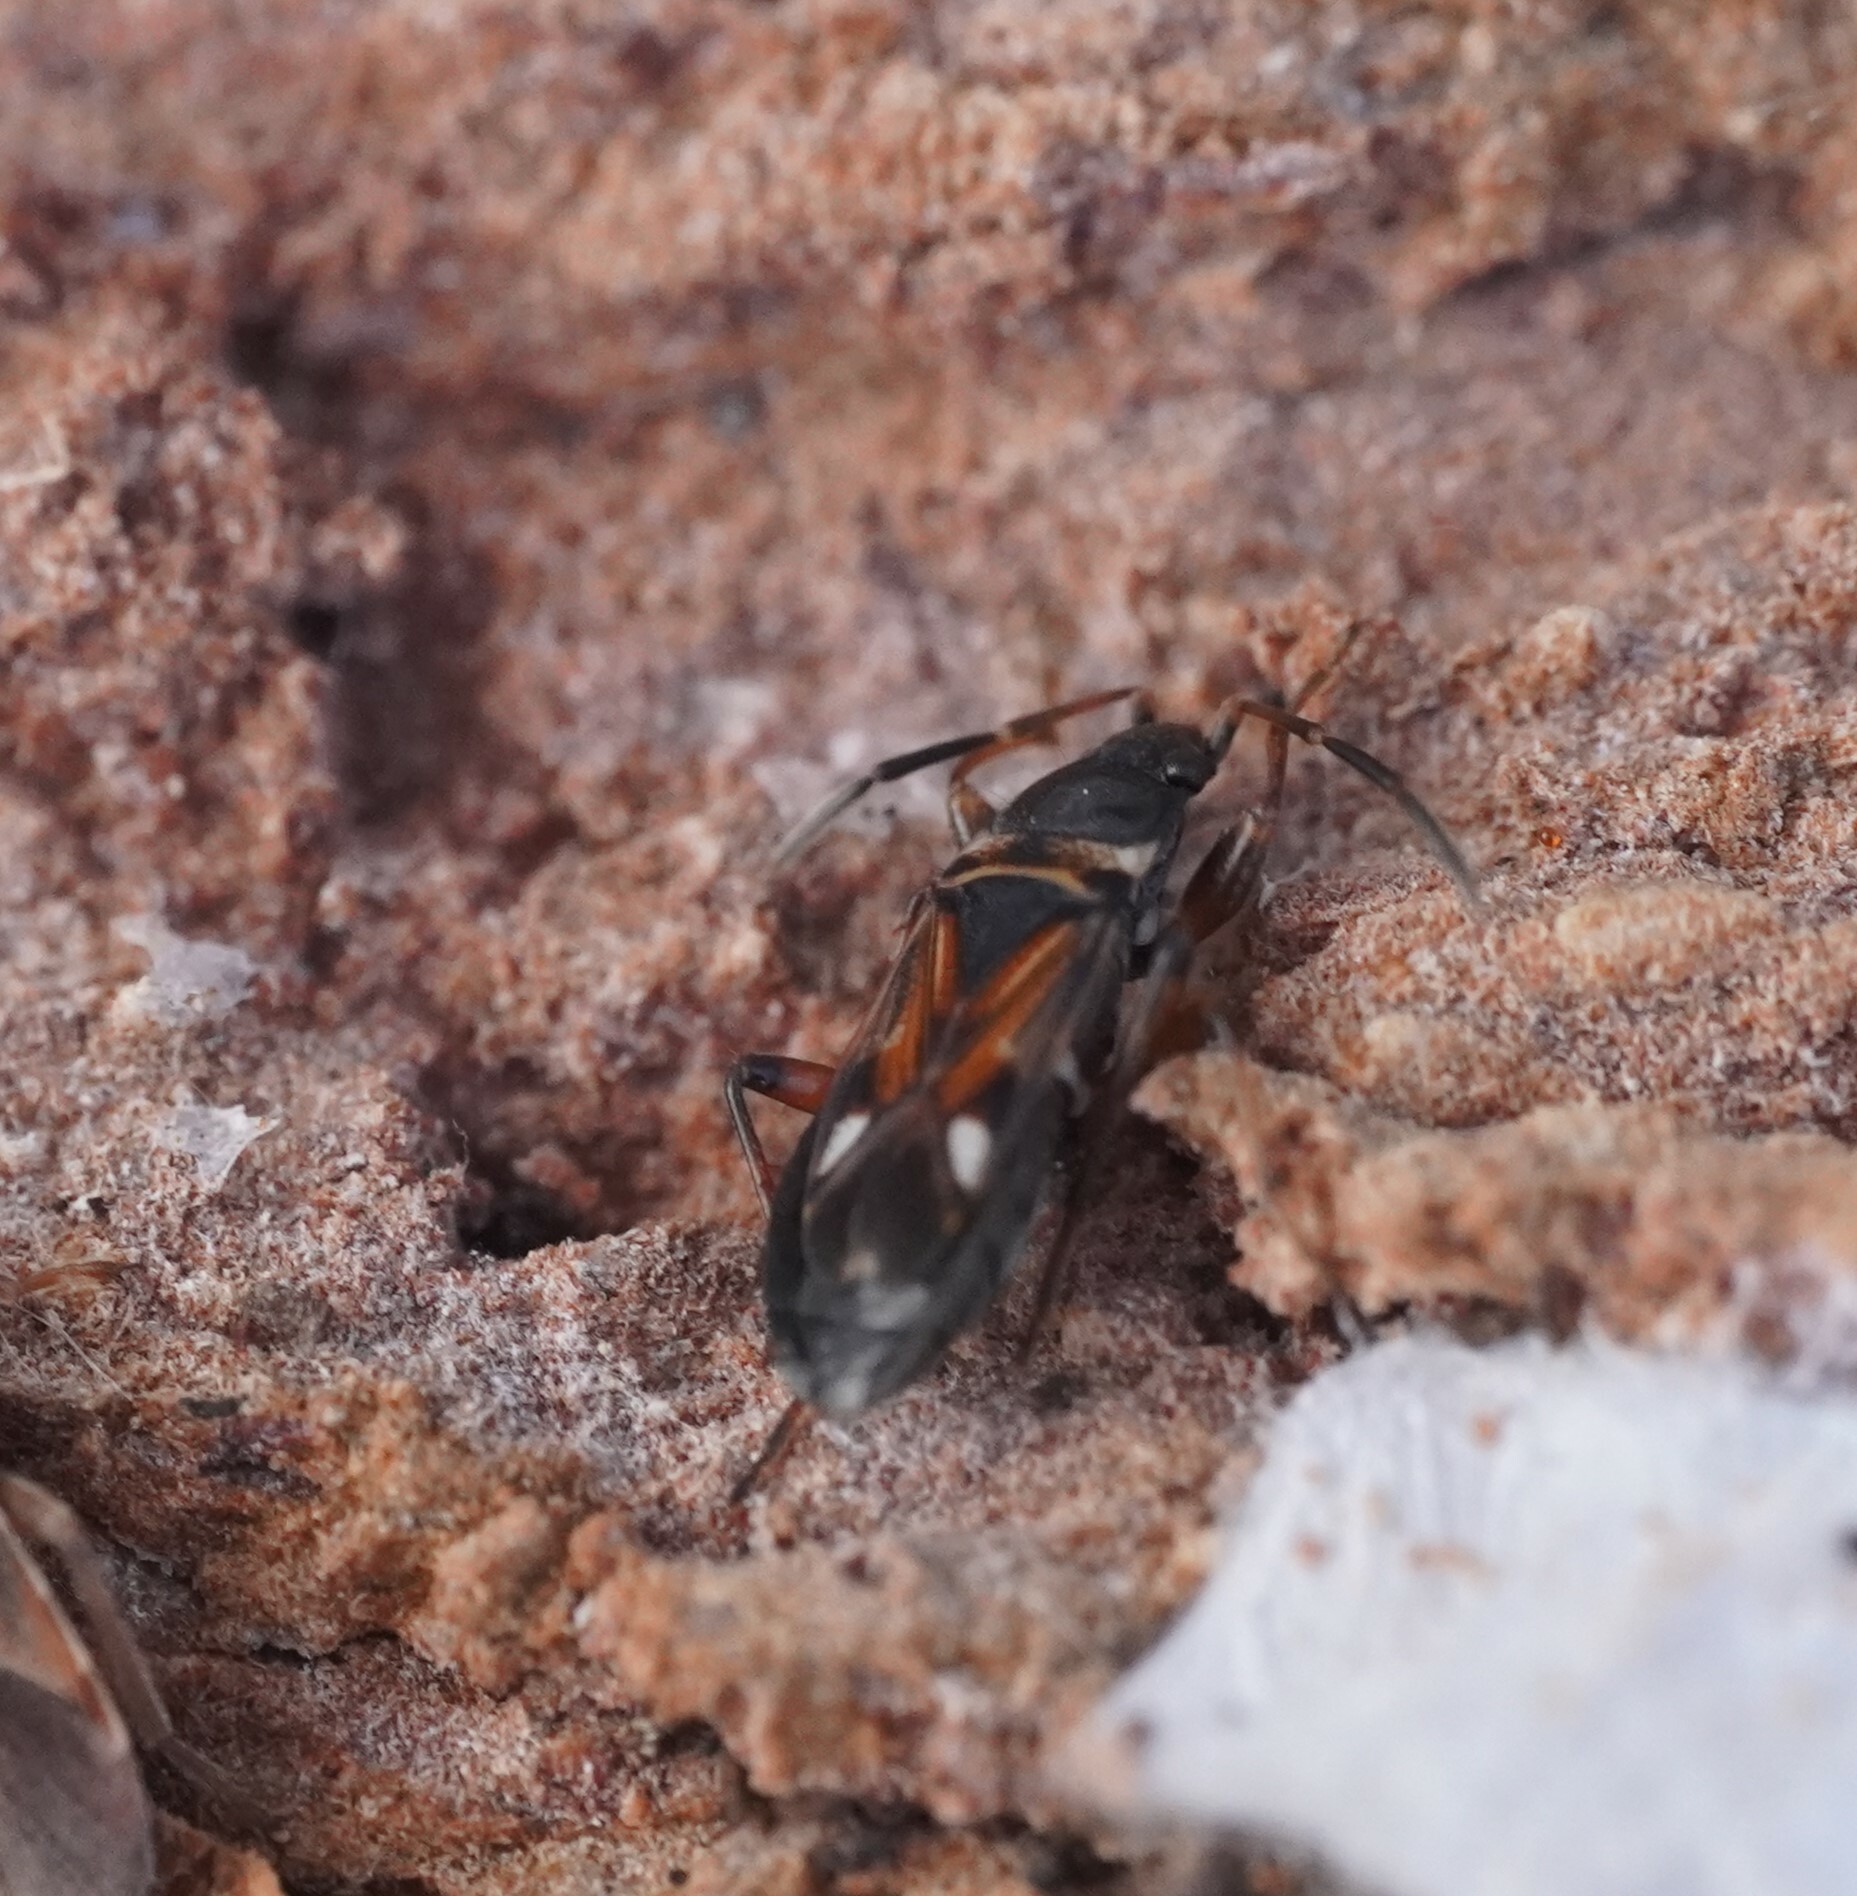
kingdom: Animalia
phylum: Arthropoda
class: Insecta
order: Hemiptera
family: Rhyparochromidae
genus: Raglius
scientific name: Raglius alboacuminatus
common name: Dirt-colored seed bug
